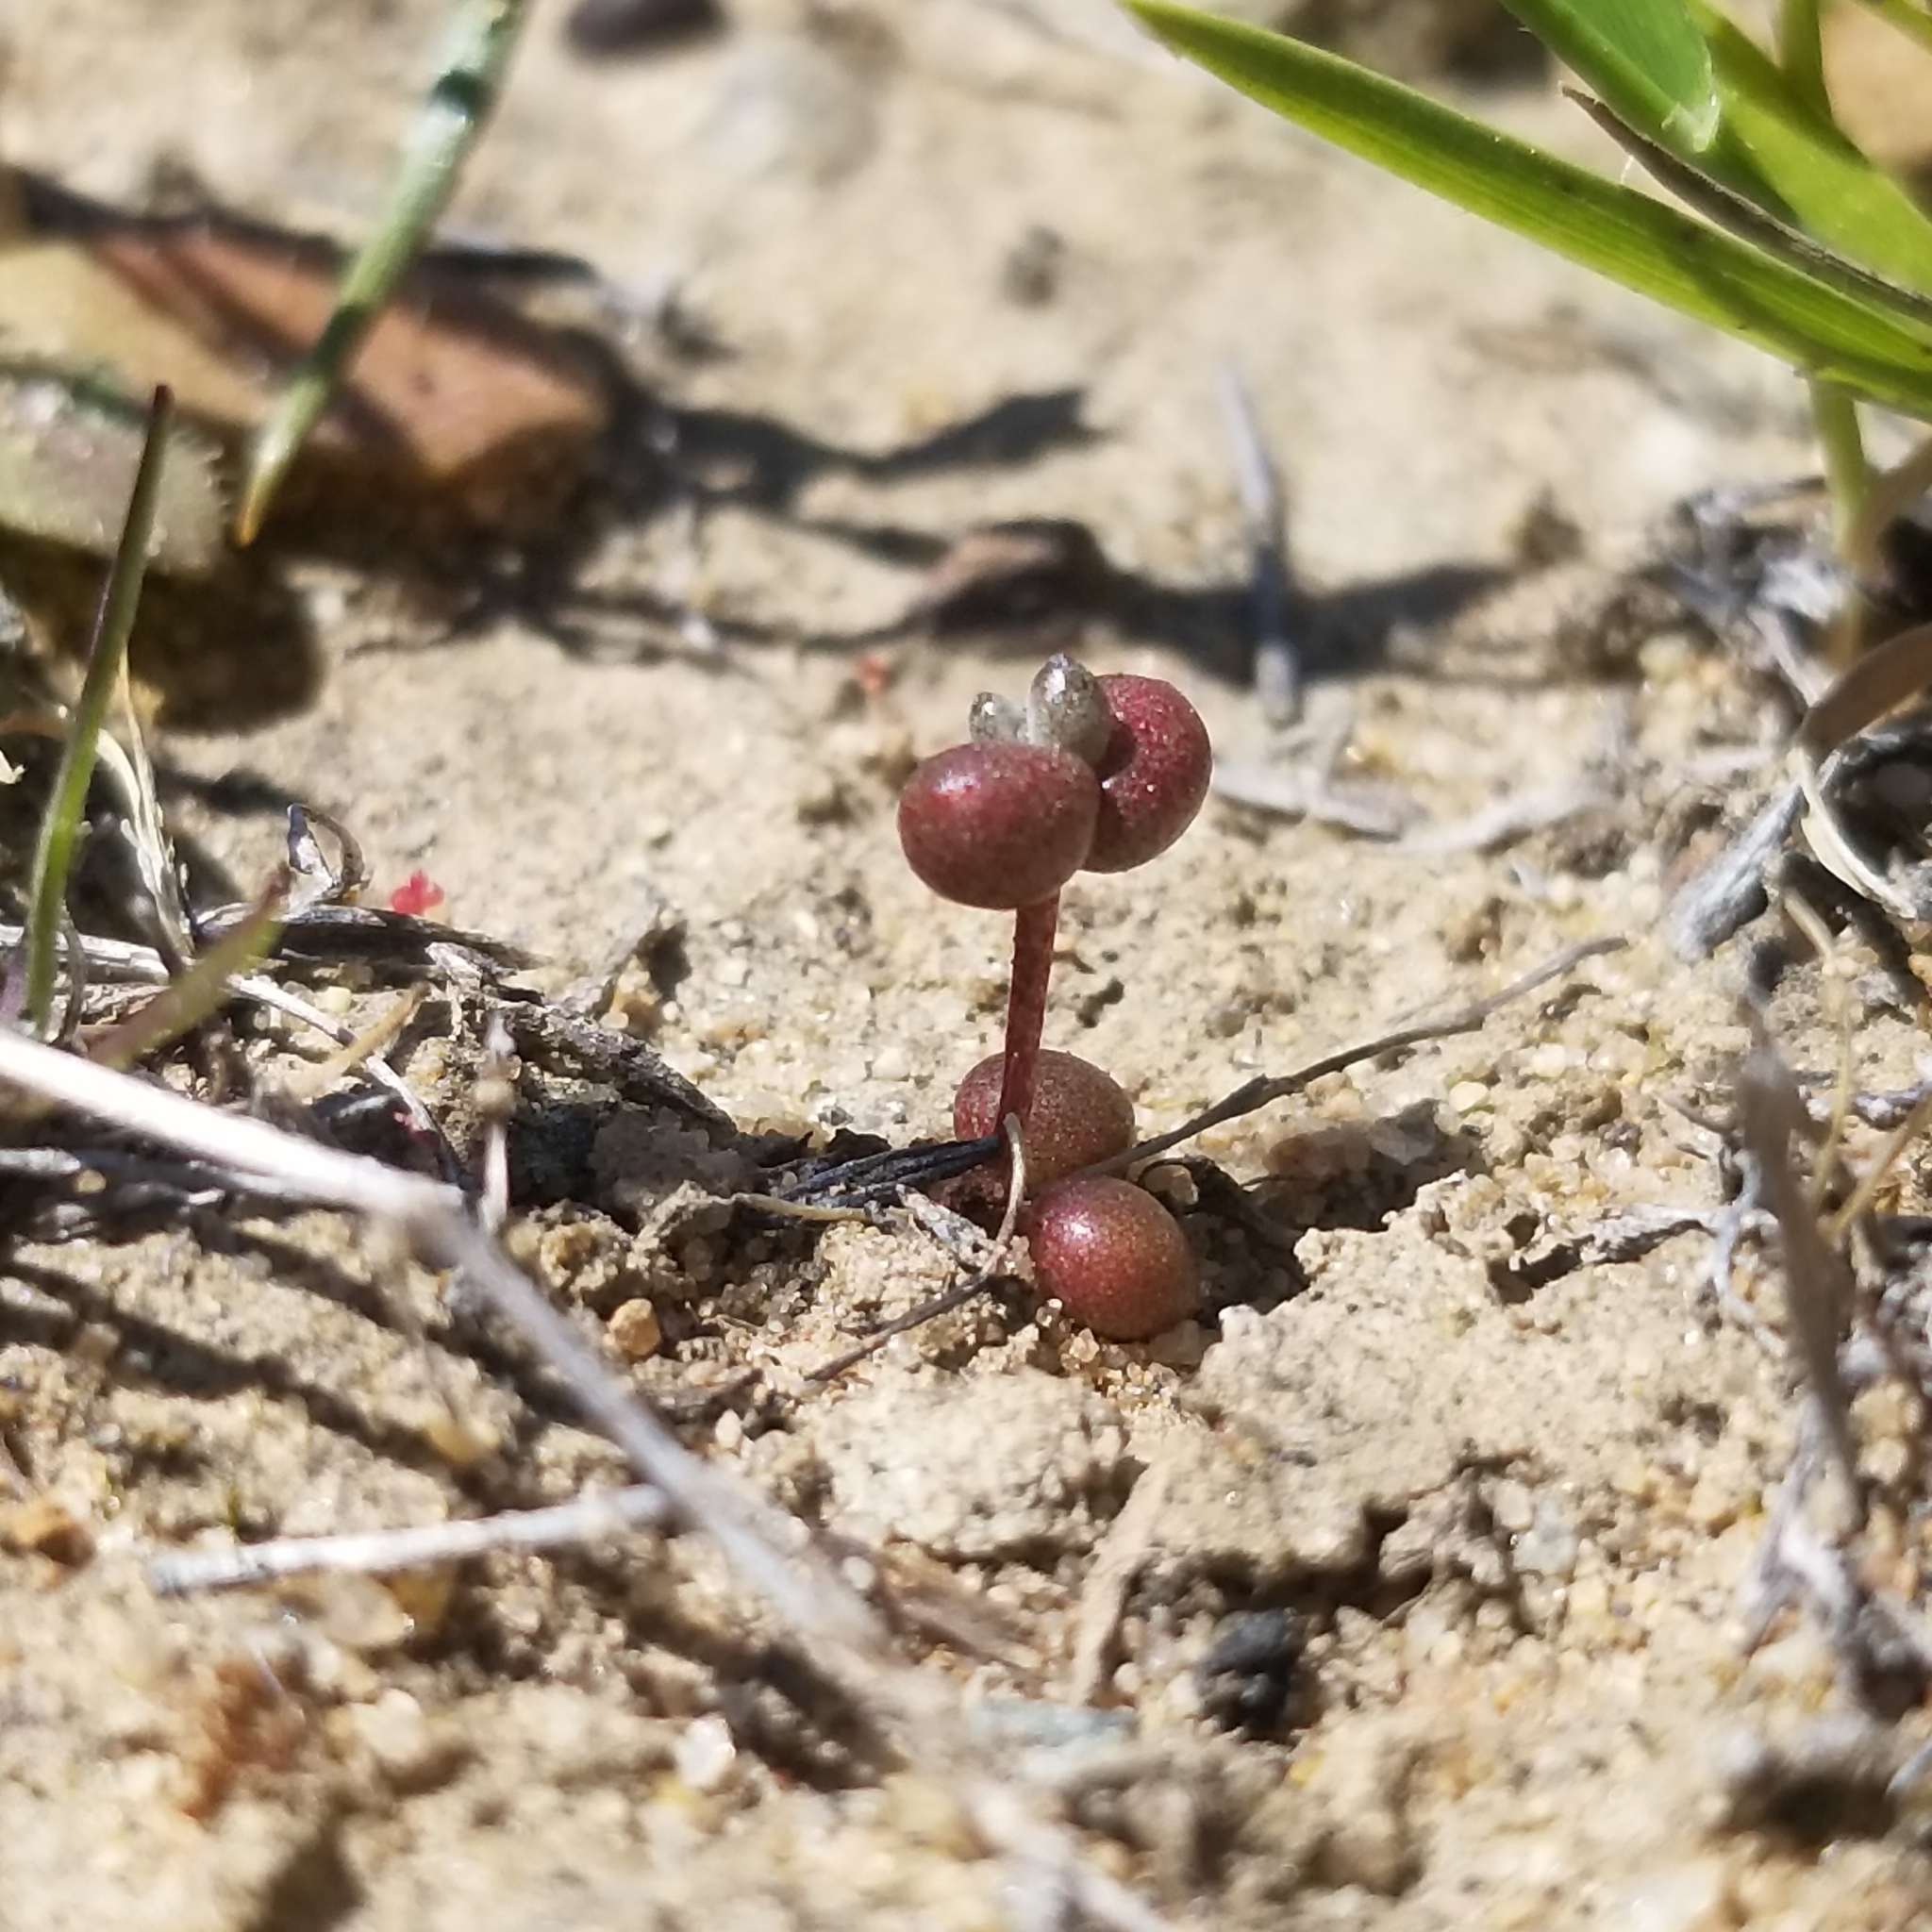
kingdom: Plantae
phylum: Tracheophyta
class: Magnoliopsida
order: Saxifragales
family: Crassulaceae
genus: Dudleya
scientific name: Dudleya blochmaniae
